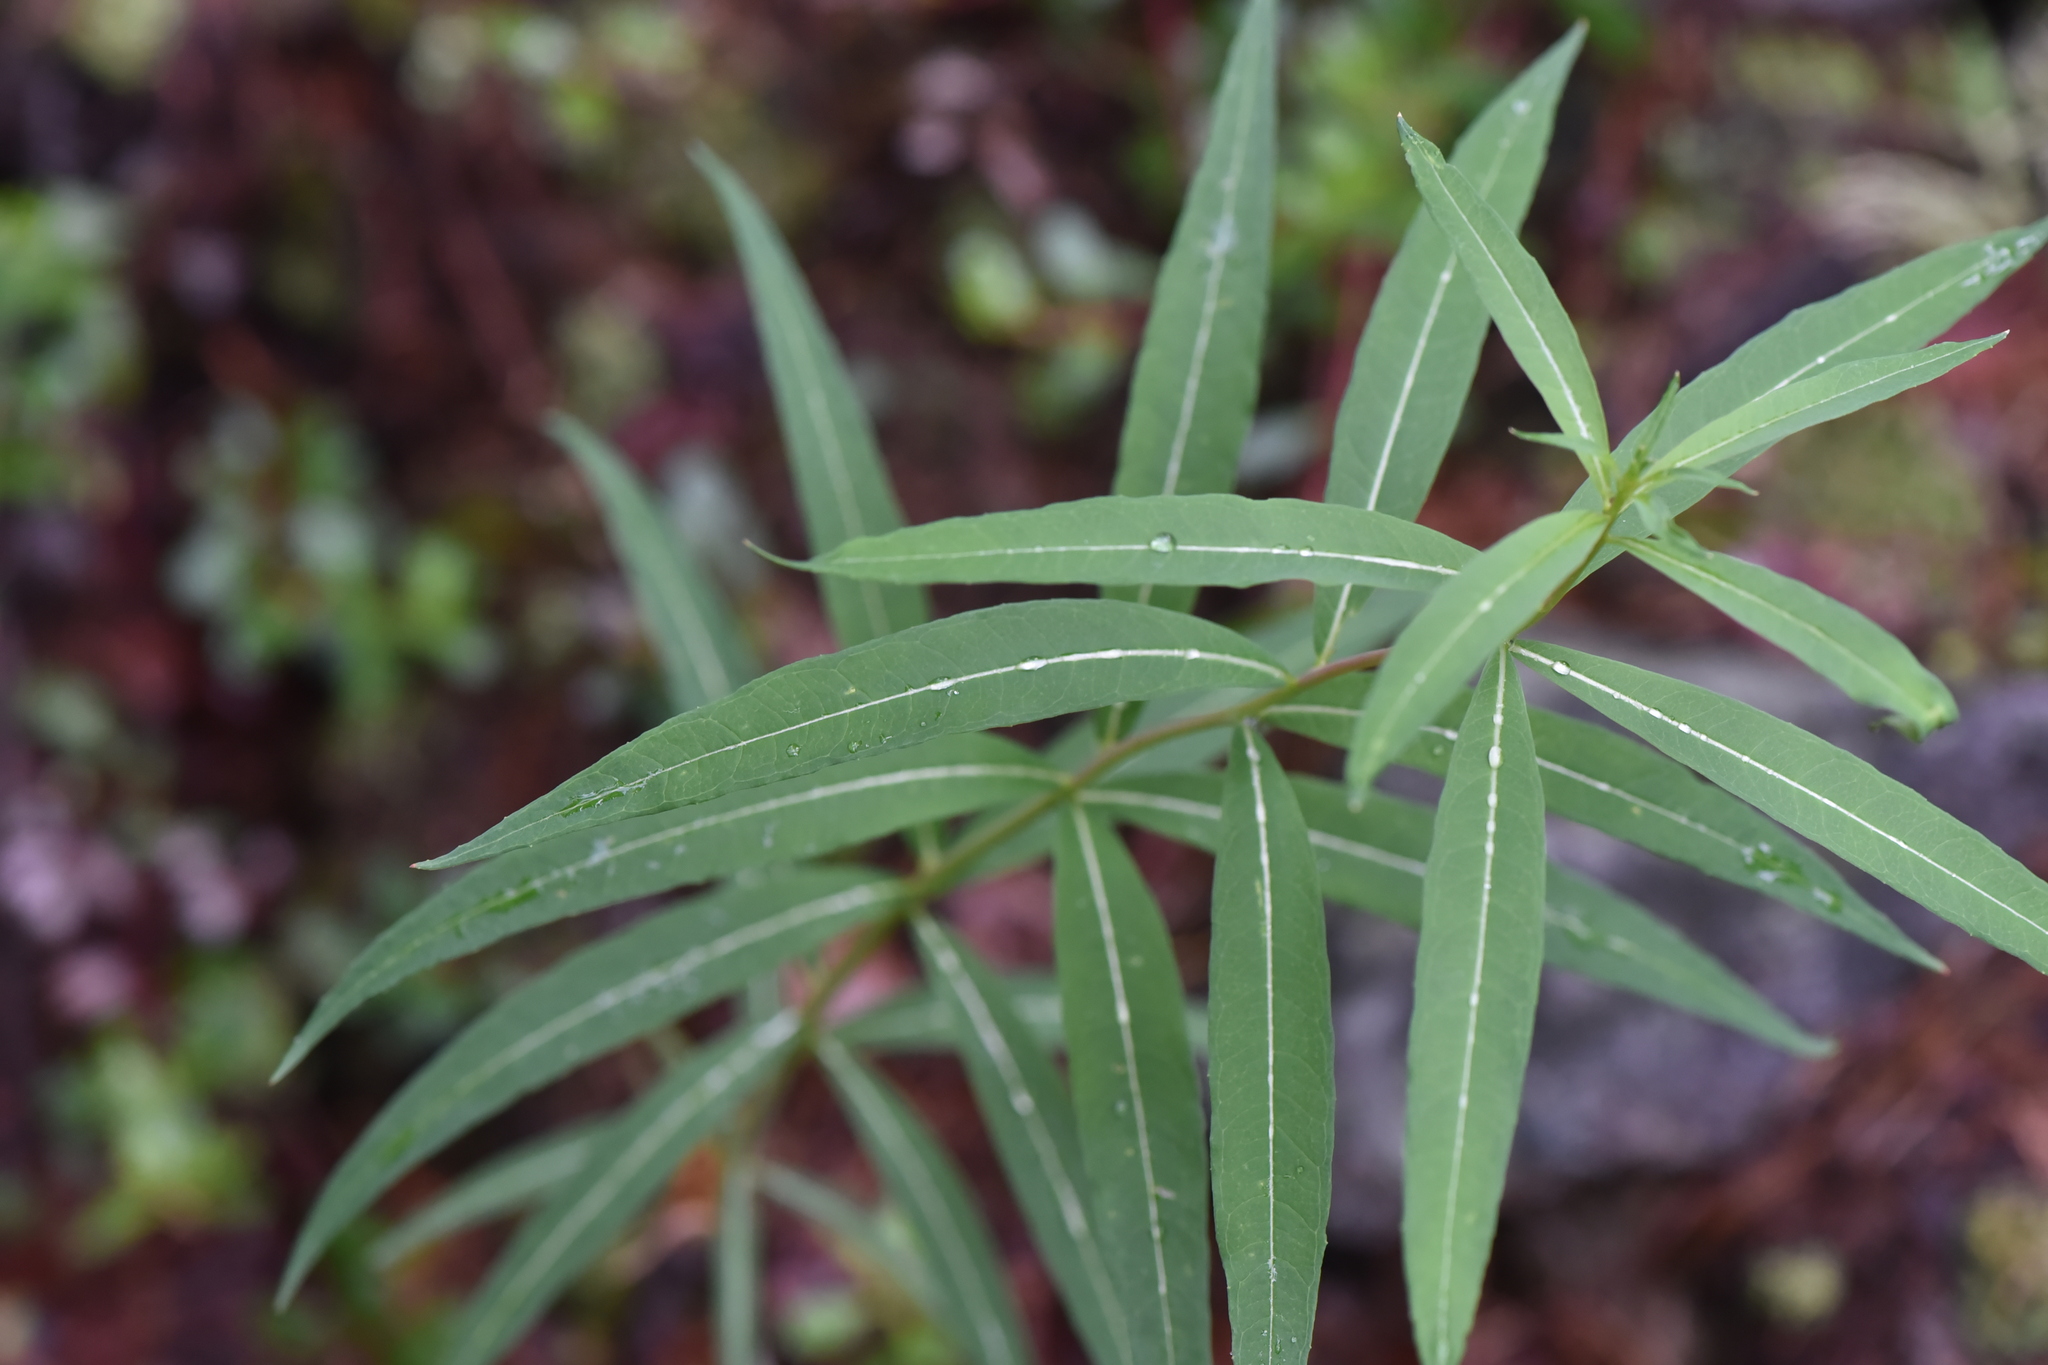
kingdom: Plantae
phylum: Tracheophyta
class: Magnoliopsida
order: Myrtales
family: Onagraceae
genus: Chamaenerion
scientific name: Chamaenerion angustifolium
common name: Fireweed
